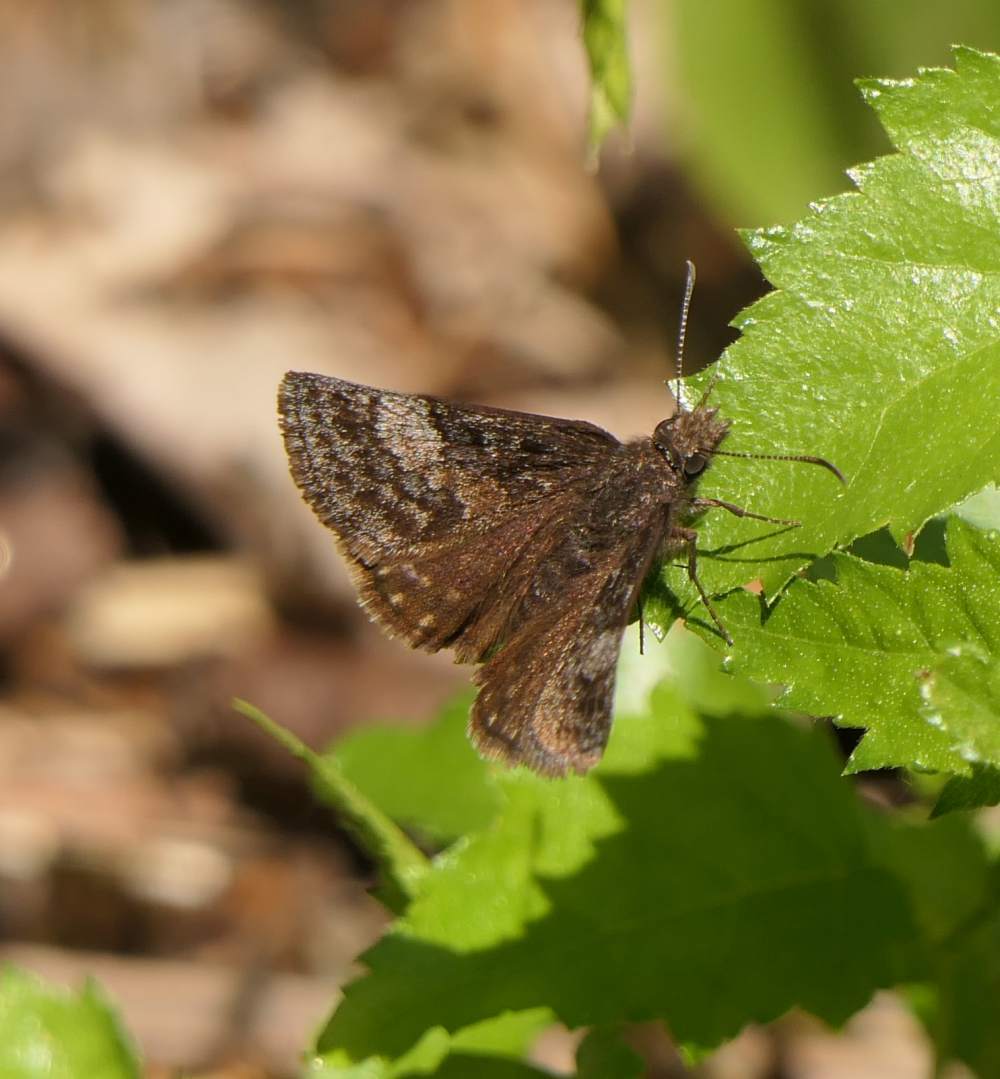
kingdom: Animalia
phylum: Arthropoda
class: Insecta
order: Lepidoptera
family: Hesperiidae
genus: Erynnis
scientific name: Erynnis icelus
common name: Dreamy duskywing
